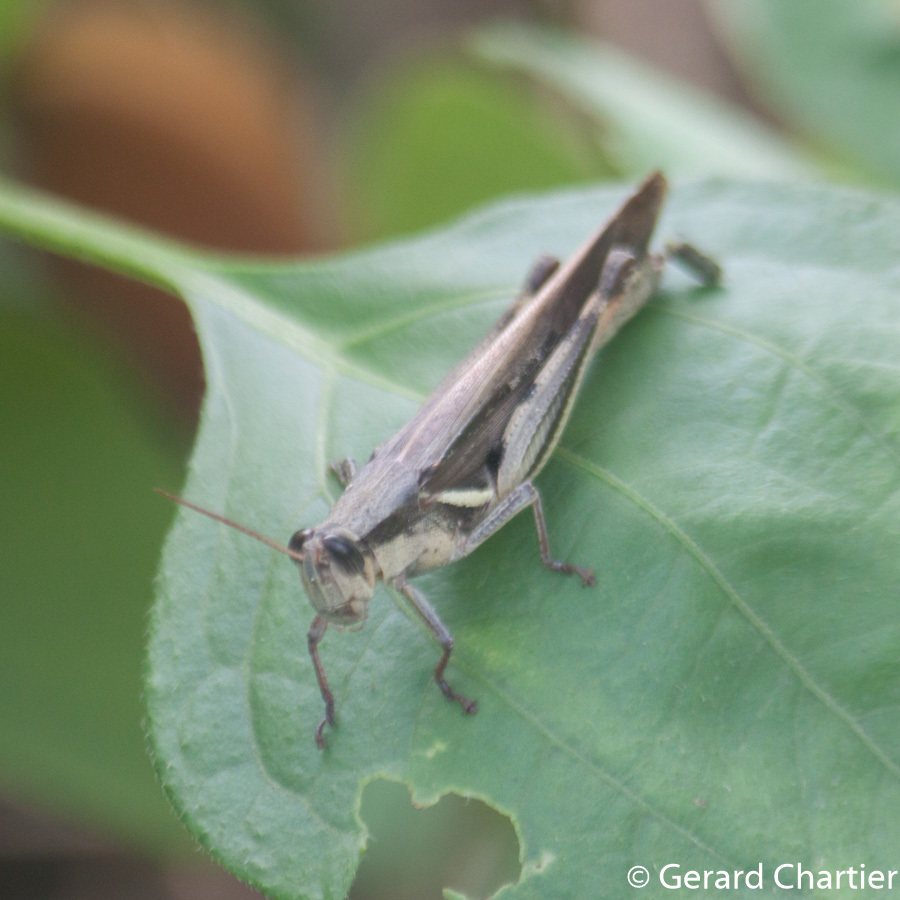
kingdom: Animalia
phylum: Arthropoda
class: Insecta
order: Orthoptera
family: Acrididae
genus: Stenocatantops
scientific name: Stenocatantops splendens
